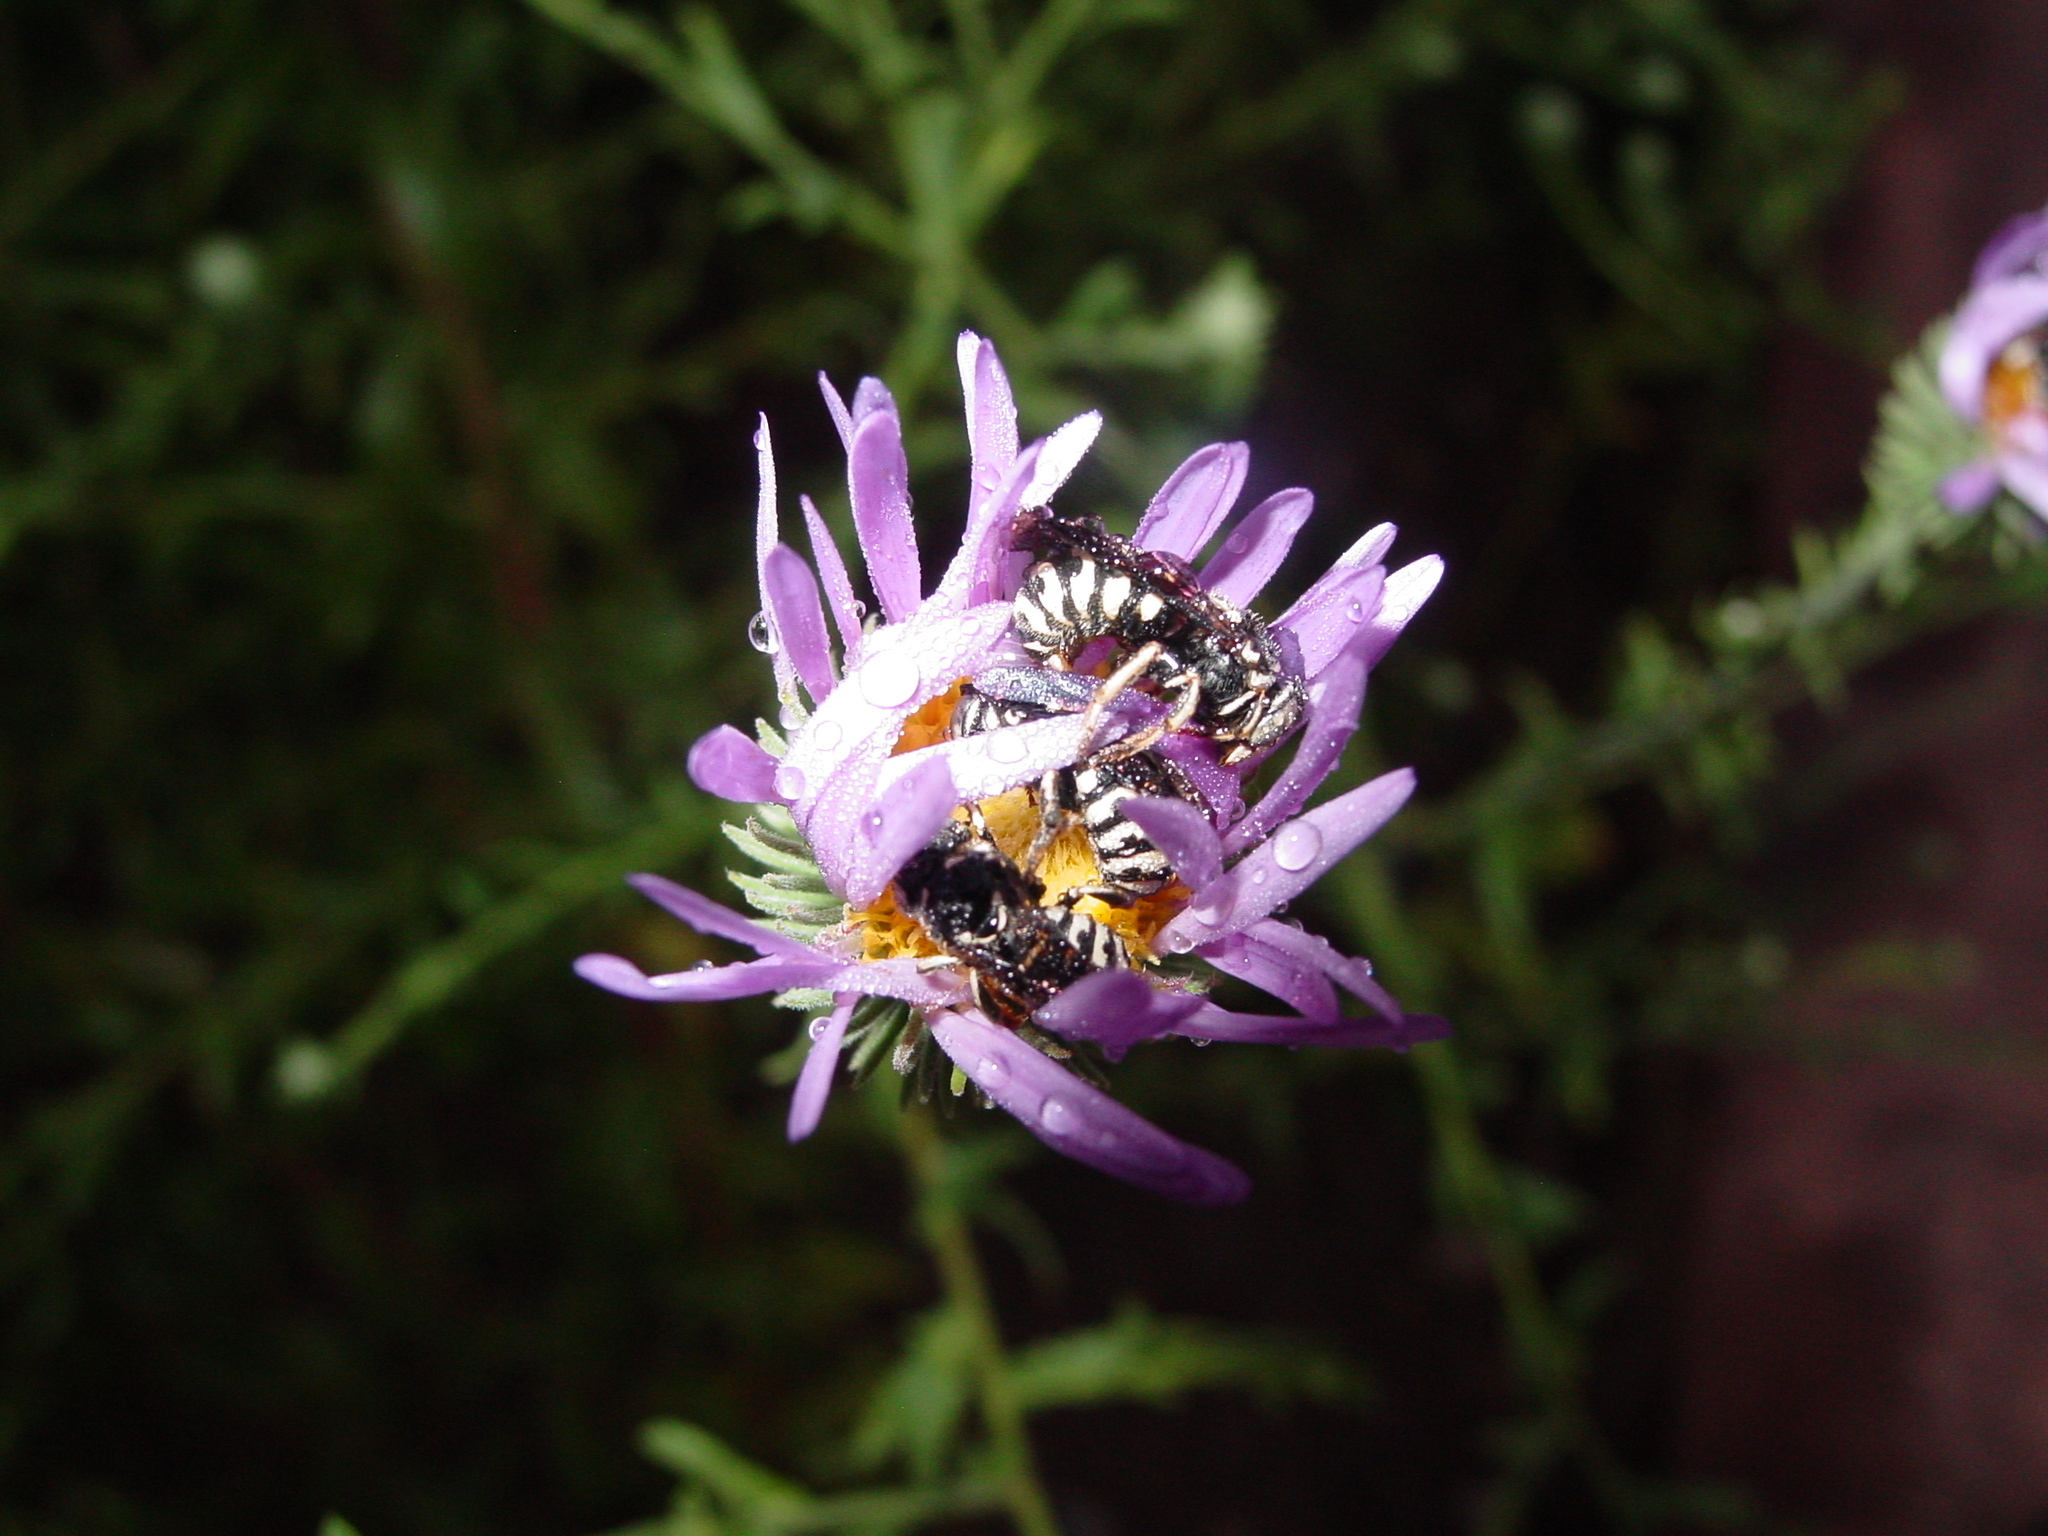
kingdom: Animalia
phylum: Arthropoda
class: Insecta
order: Hymenoptera
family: Megachilidae
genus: Dianthidium
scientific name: Dianthidium
